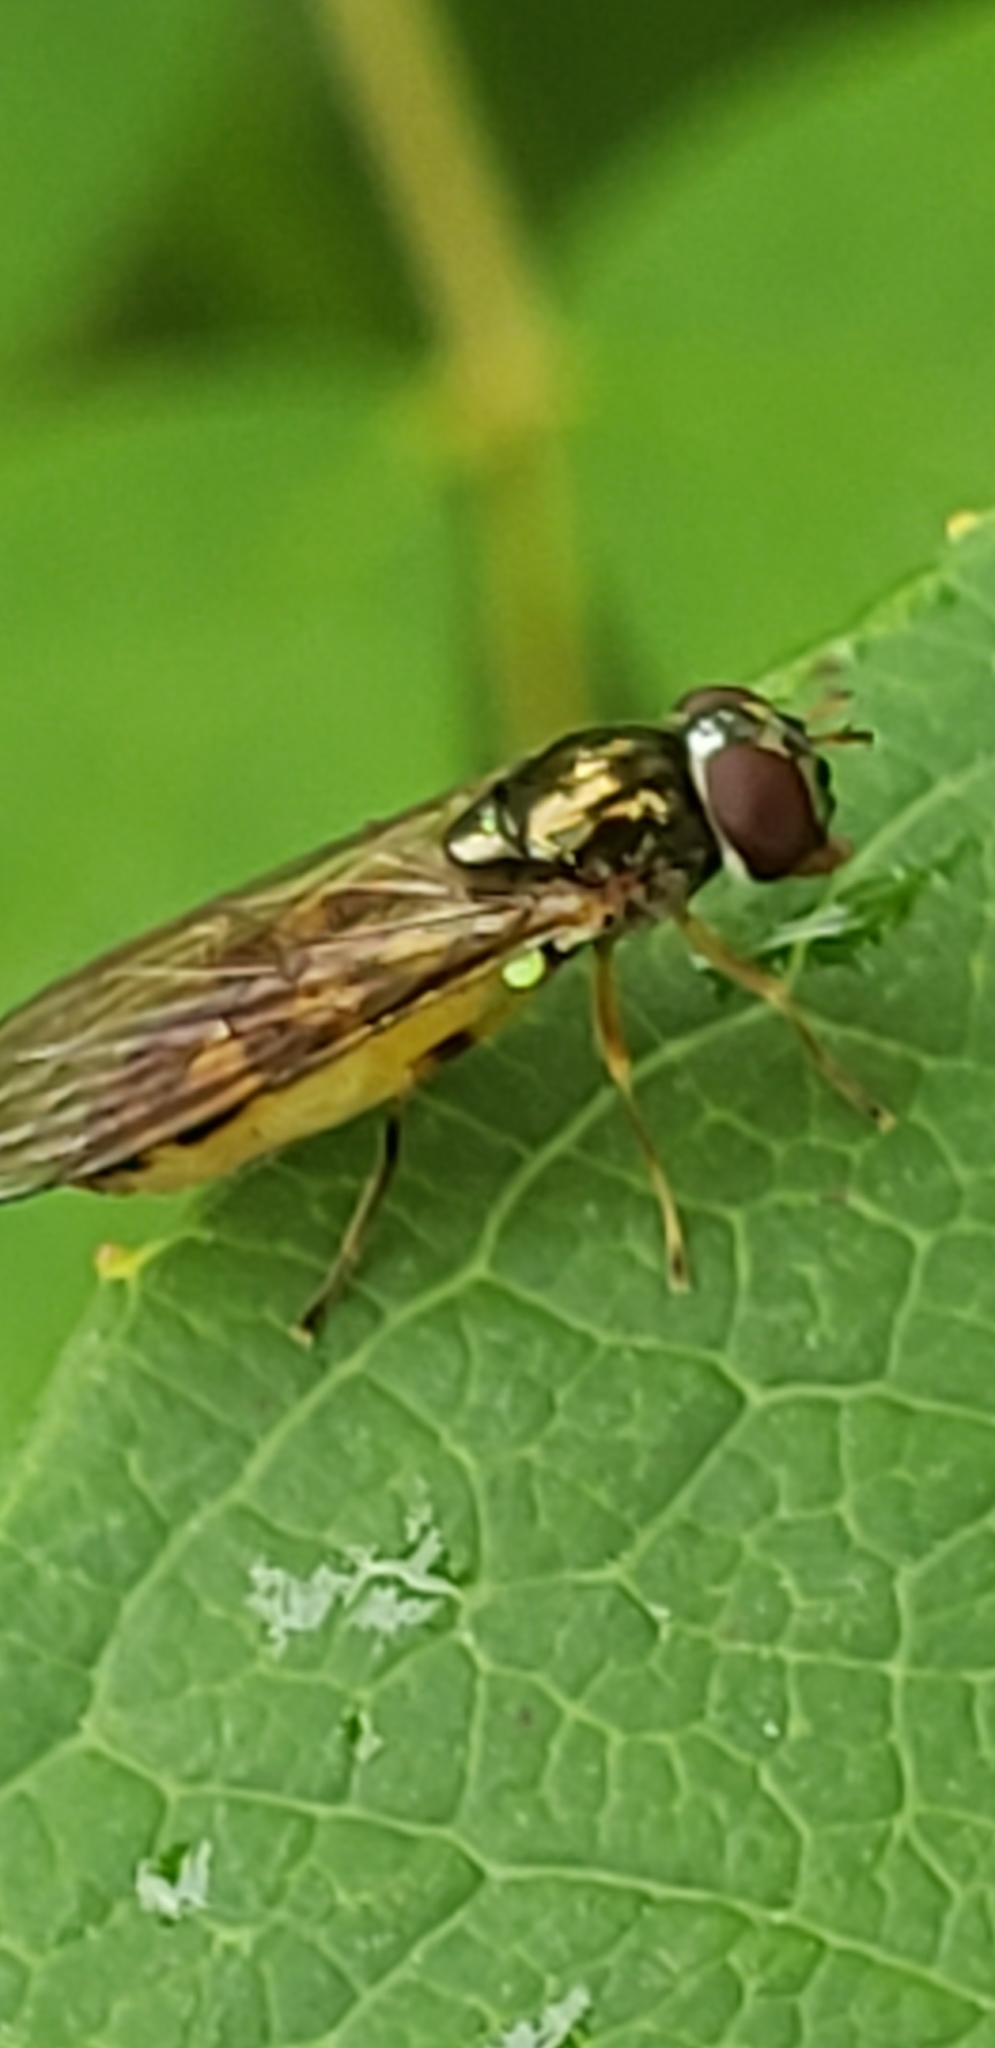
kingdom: Animalia
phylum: Arthropoda
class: Insecta
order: Diptera
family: Syrphidae
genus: Melanostoma
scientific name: Melanostoma mellina
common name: Hover fly
